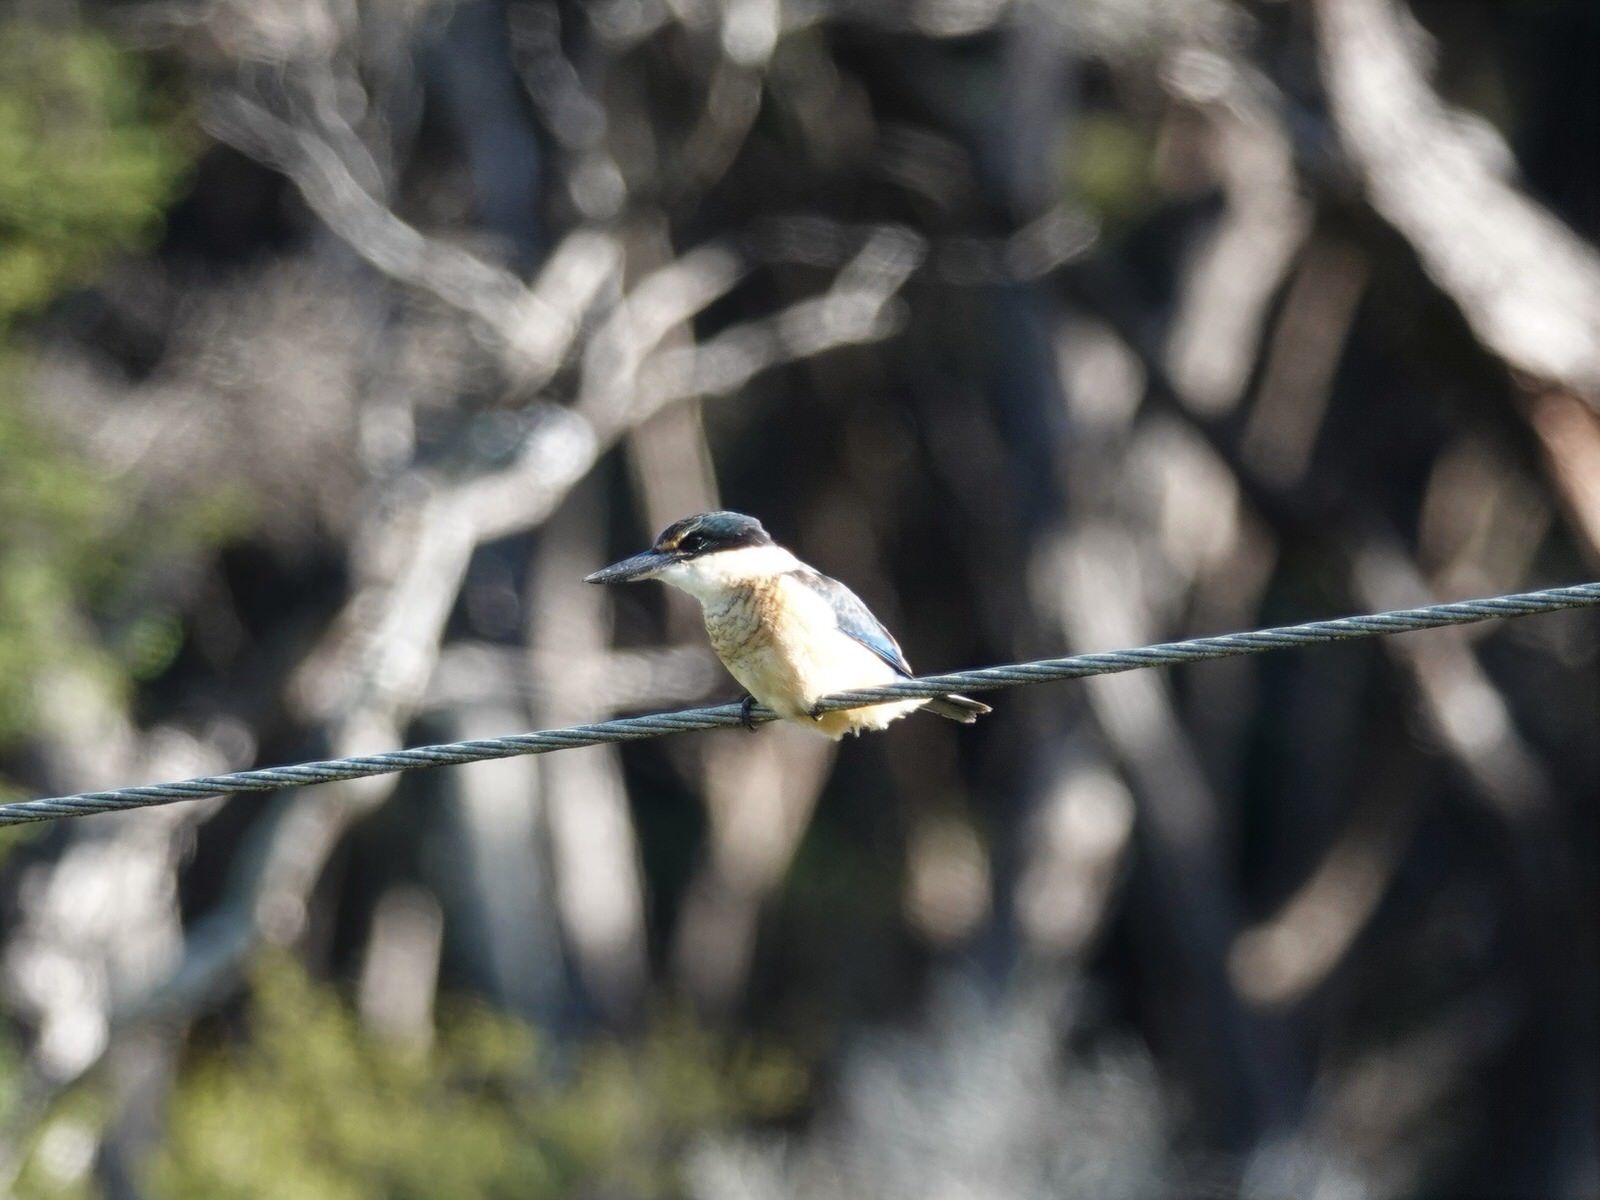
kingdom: Animalia
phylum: Chordata
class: Aves
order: Coraciiformes
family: Alcedinidae
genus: Todiramphus
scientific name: Todiramphus sanctus
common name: Sacred kingfisher
